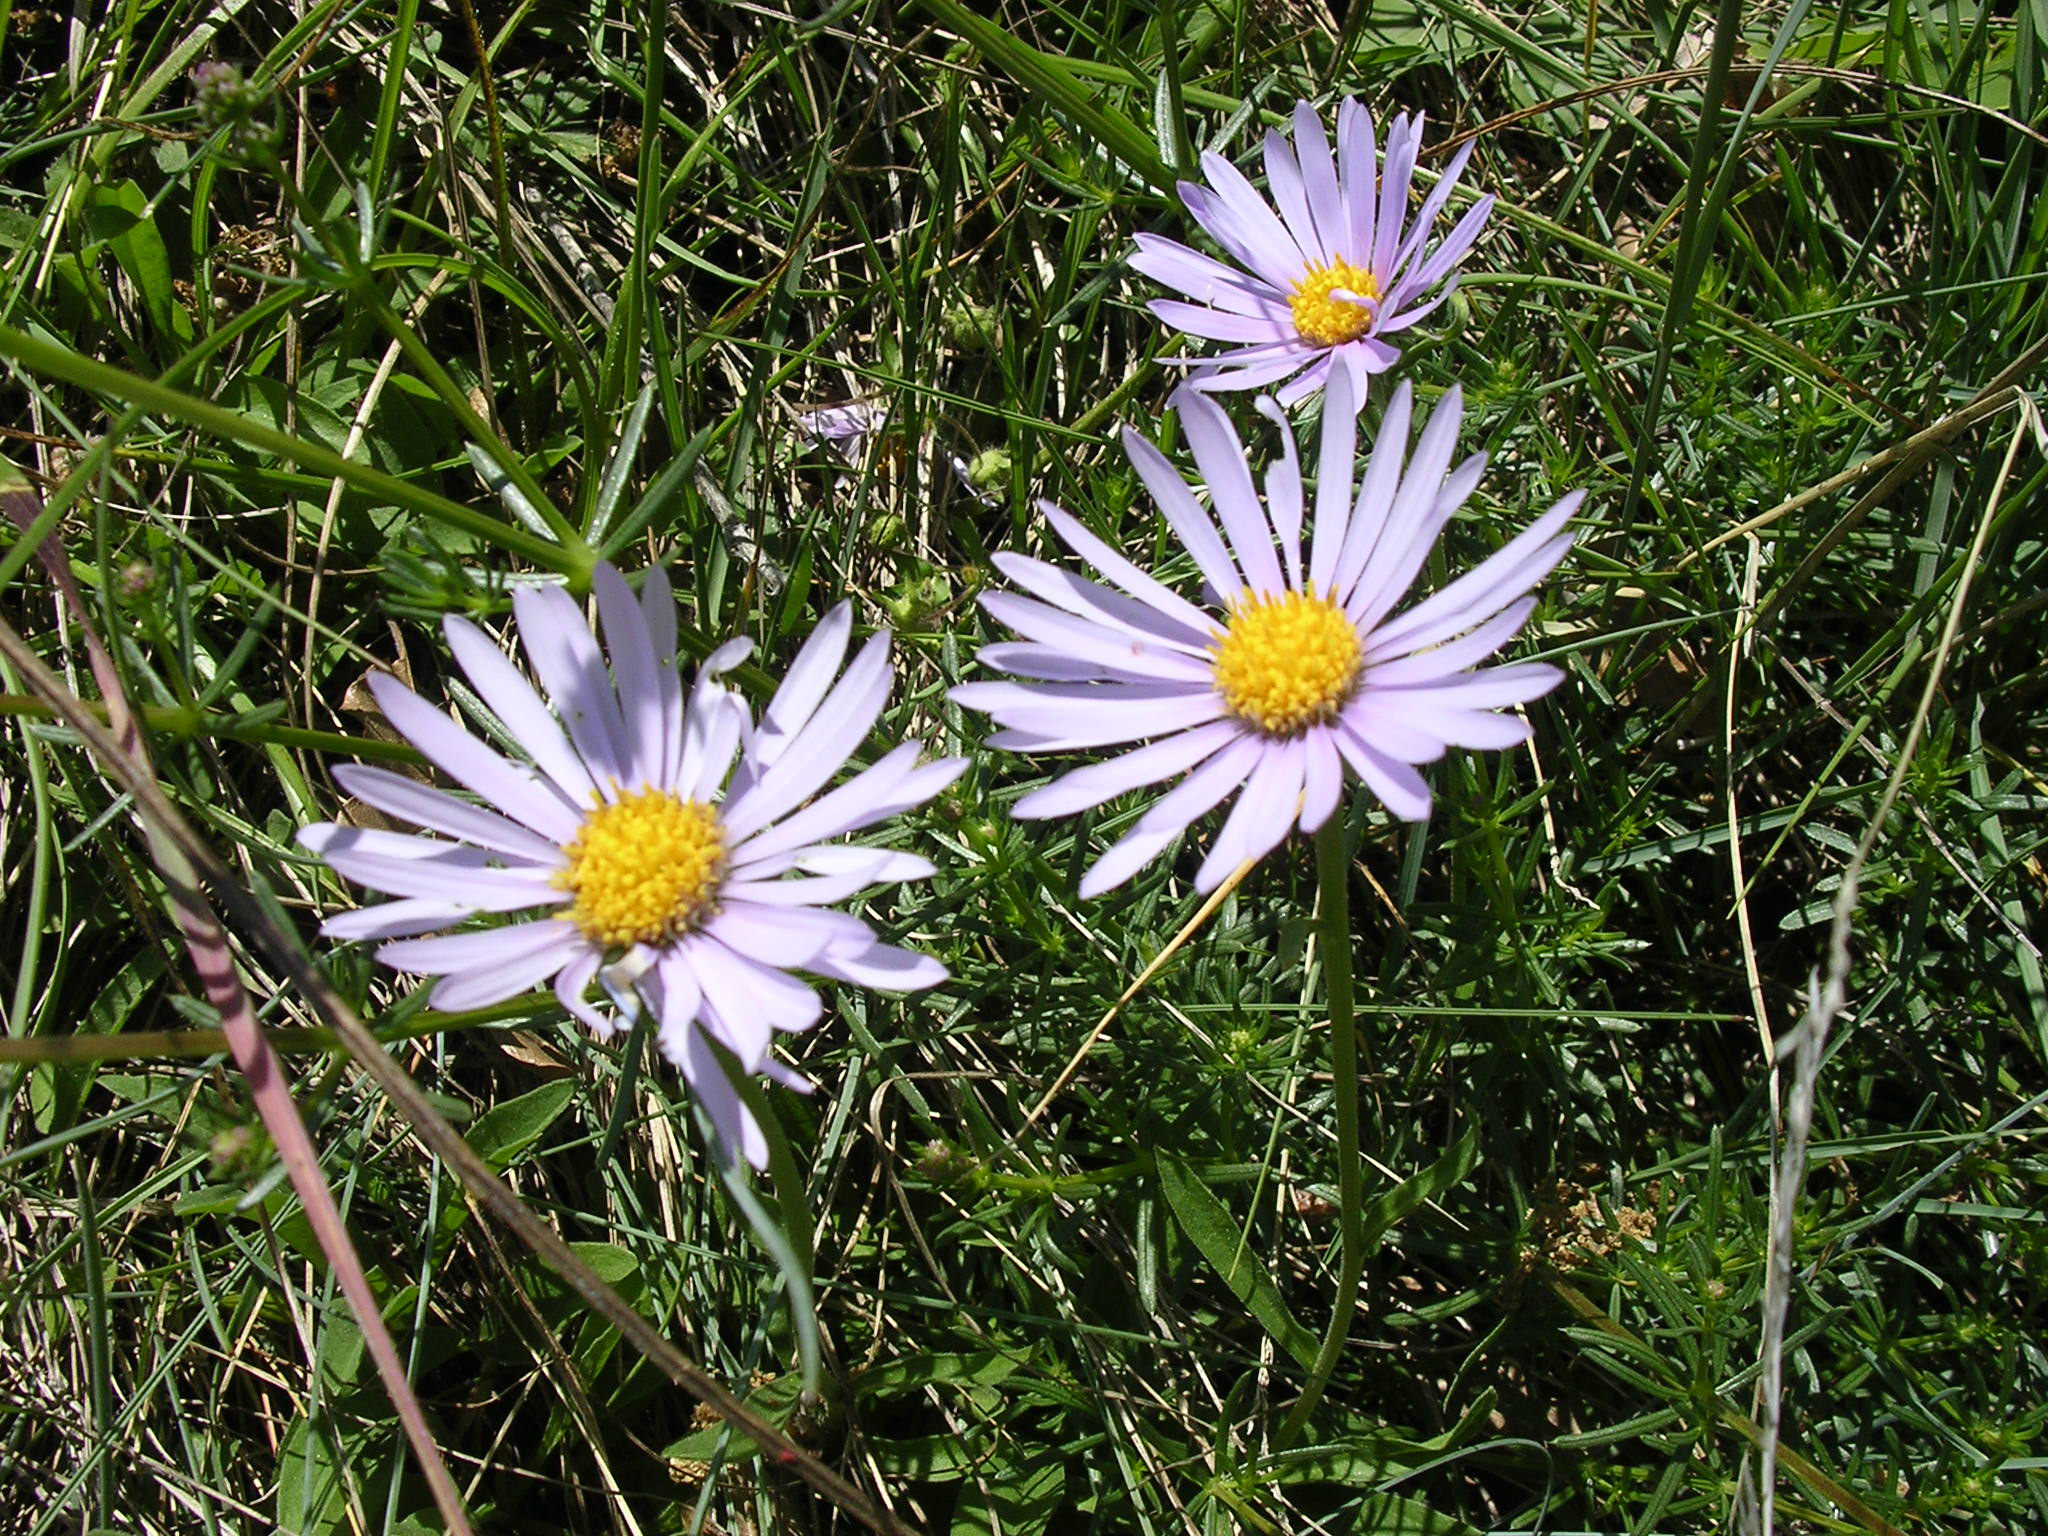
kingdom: Plantae
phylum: Tracheophyta
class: Magnoliopsida
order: Asterales
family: Asteraceae
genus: Aster
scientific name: Aster alpinus
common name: Alpine aster
